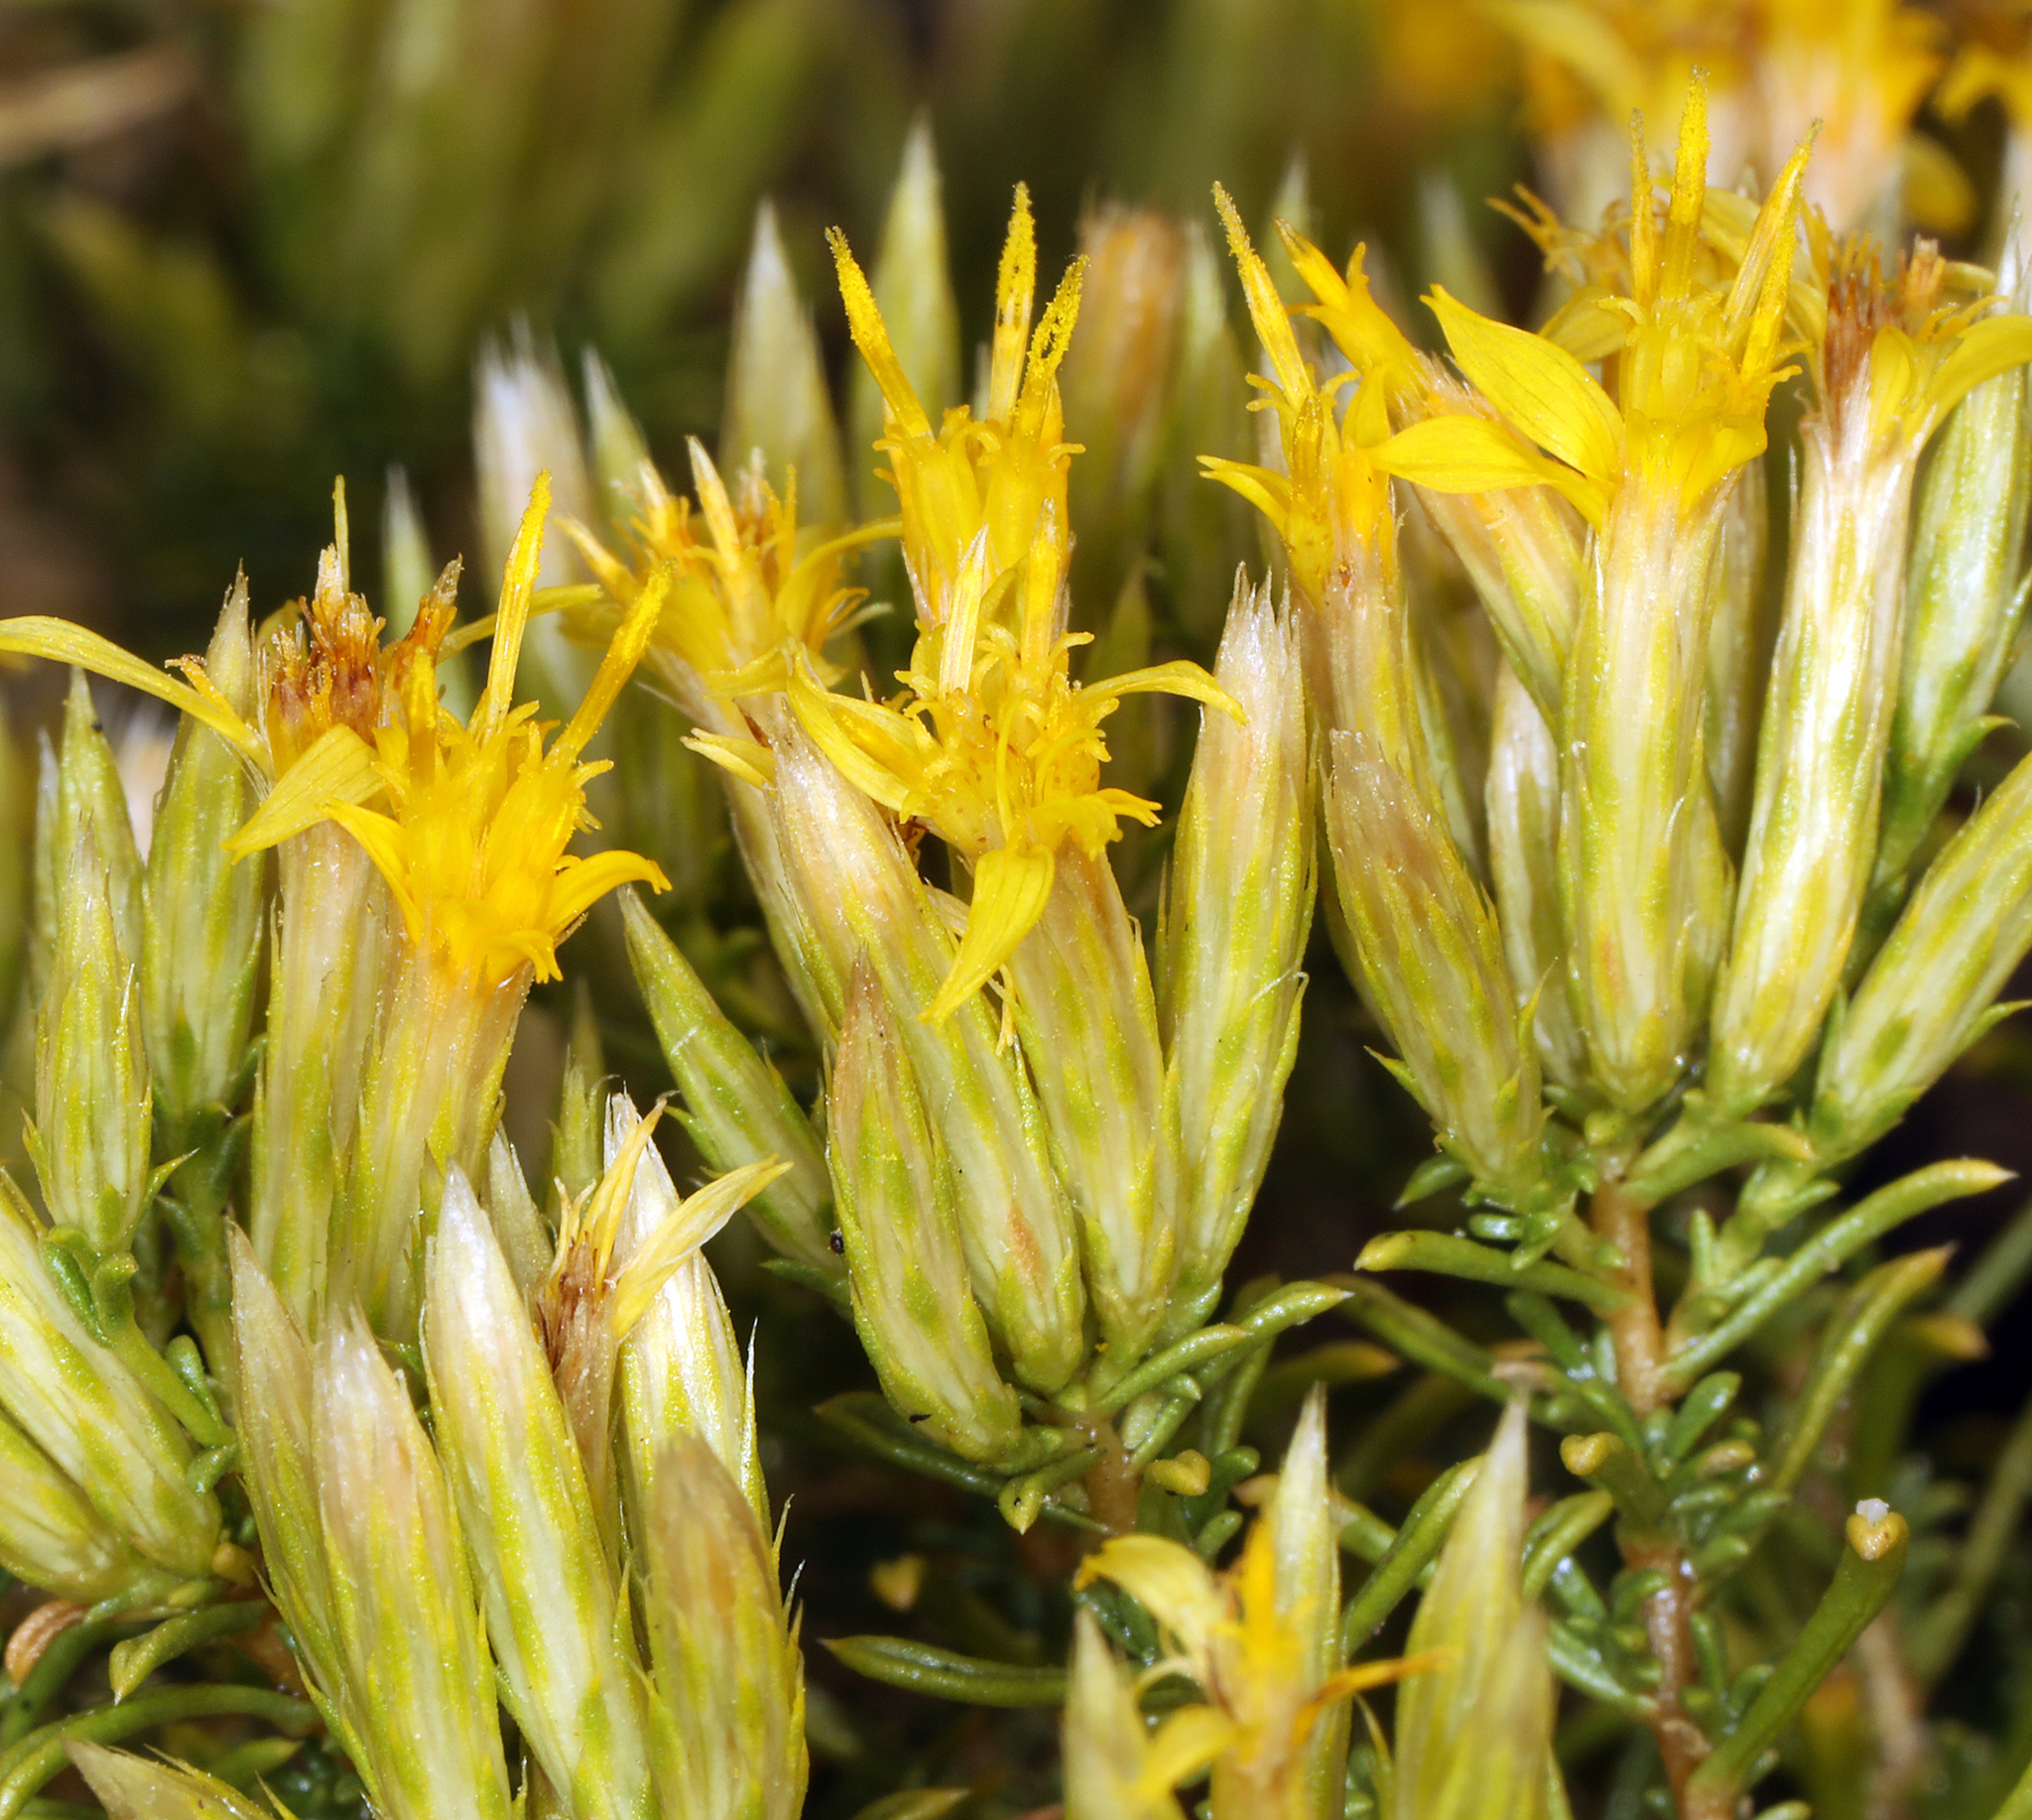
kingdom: Plantae
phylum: Tracheophyta
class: Magnoliopsida
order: Asterales
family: Asteraceae
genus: Ericameria
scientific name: Ericameria nana
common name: Dwarf goldenbush
